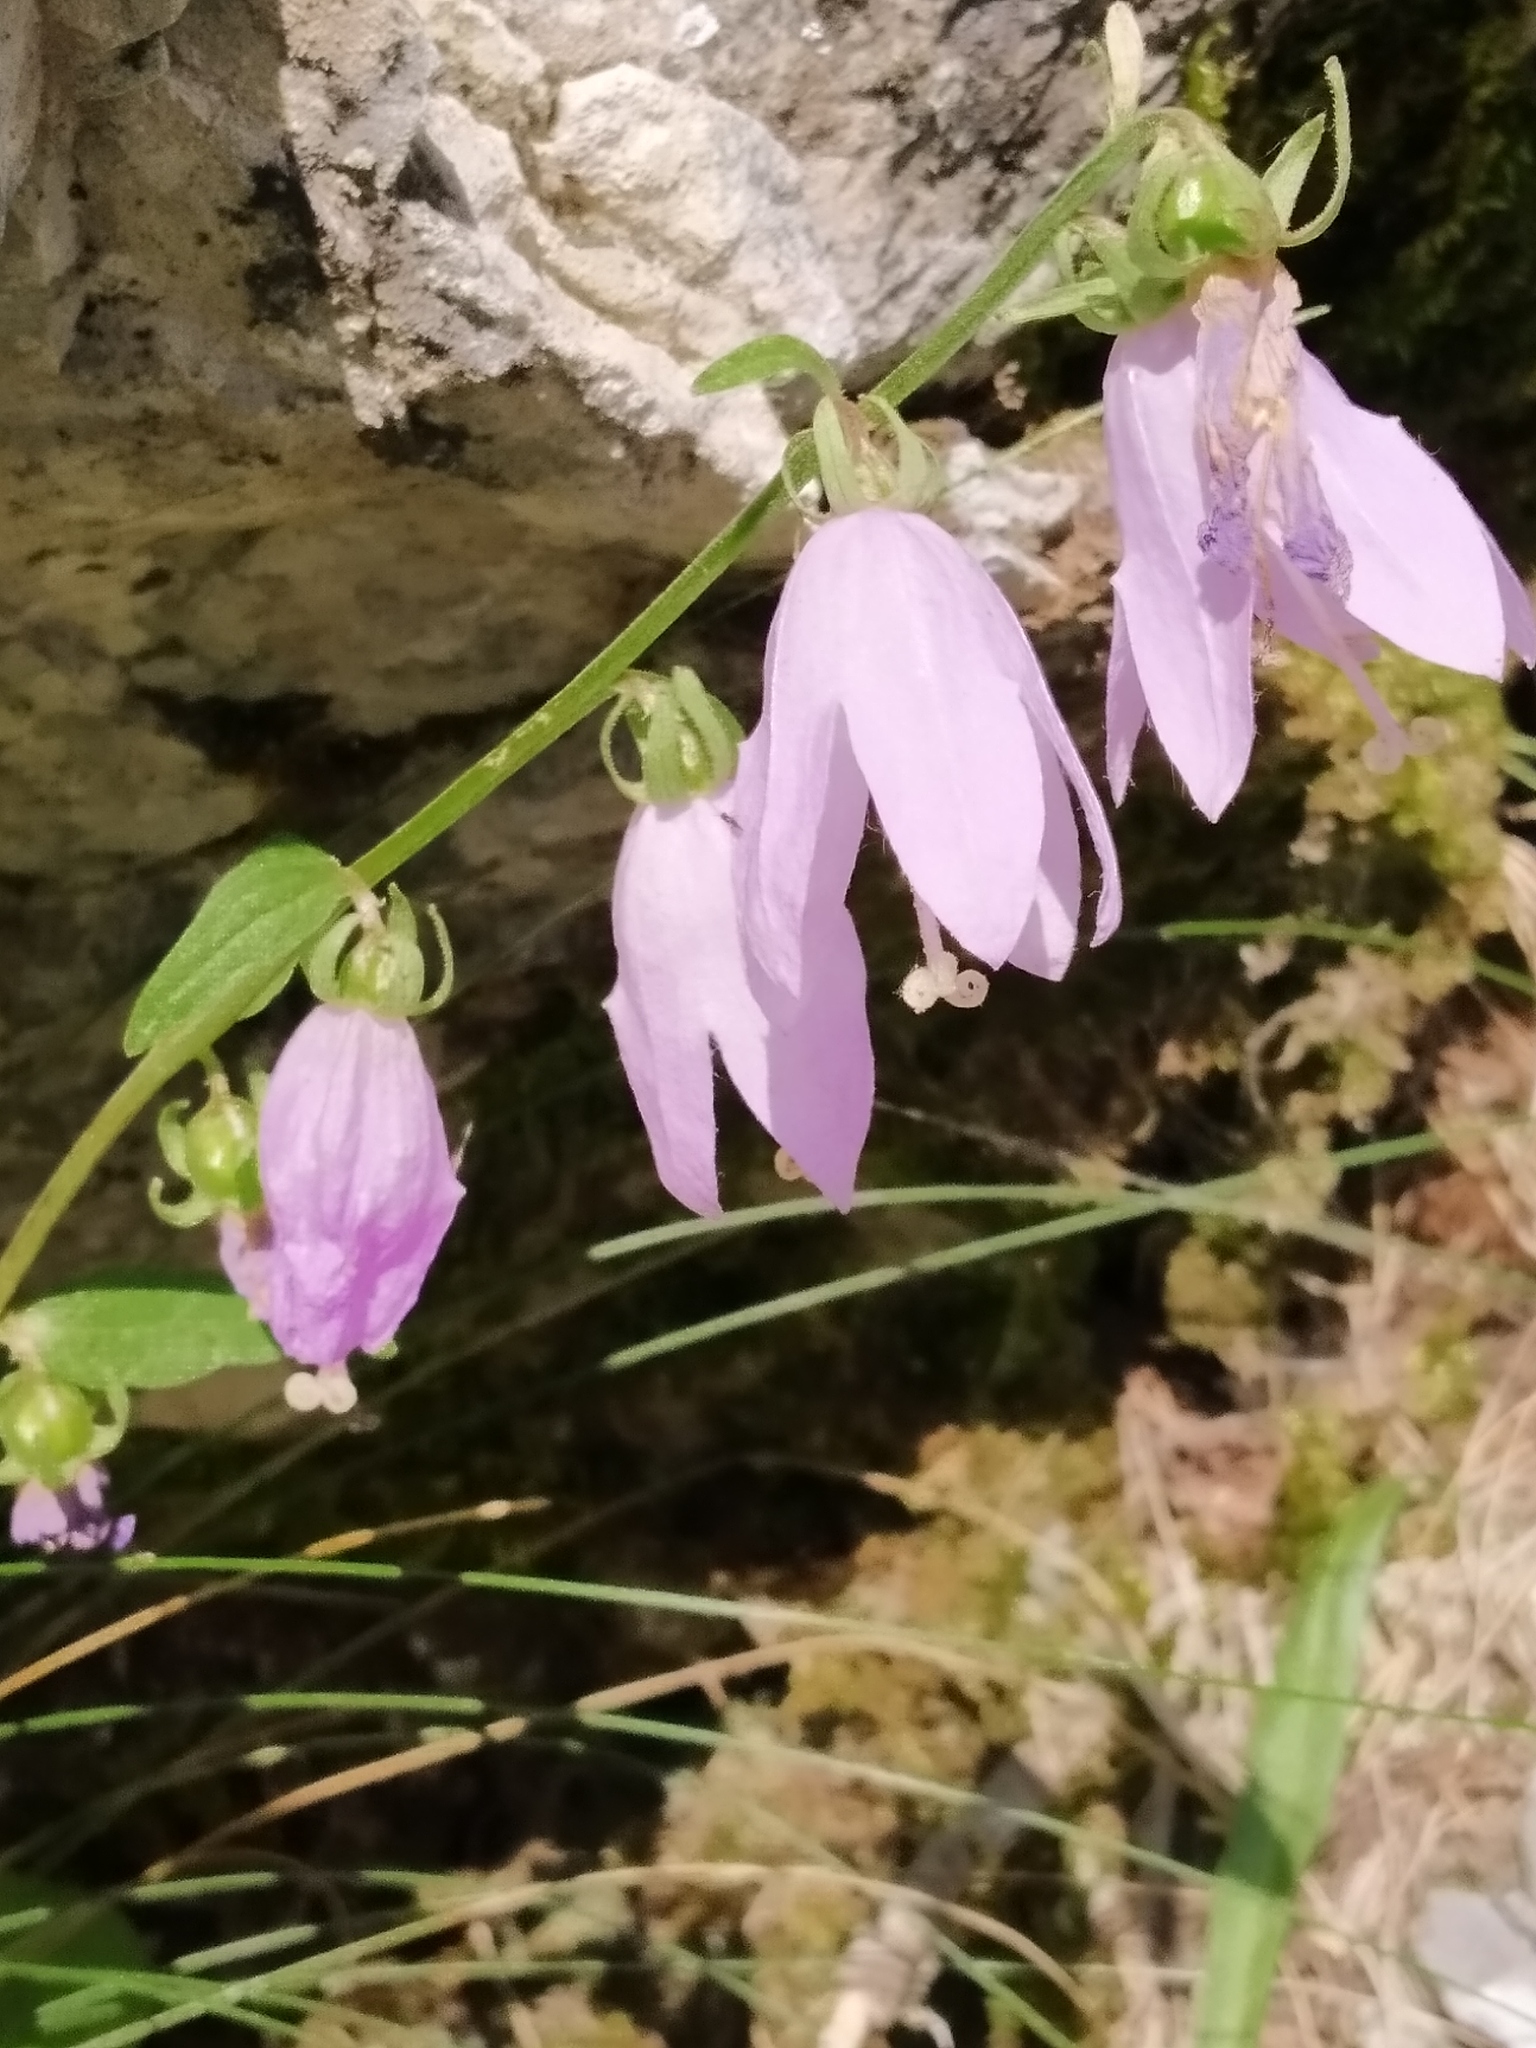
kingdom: Plantae
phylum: Tracheophyta
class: Magnoliopsida
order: Asterales
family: Campanulaceae
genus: Campanula
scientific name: Campanula rapunculoides
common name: Creeping bellflower
